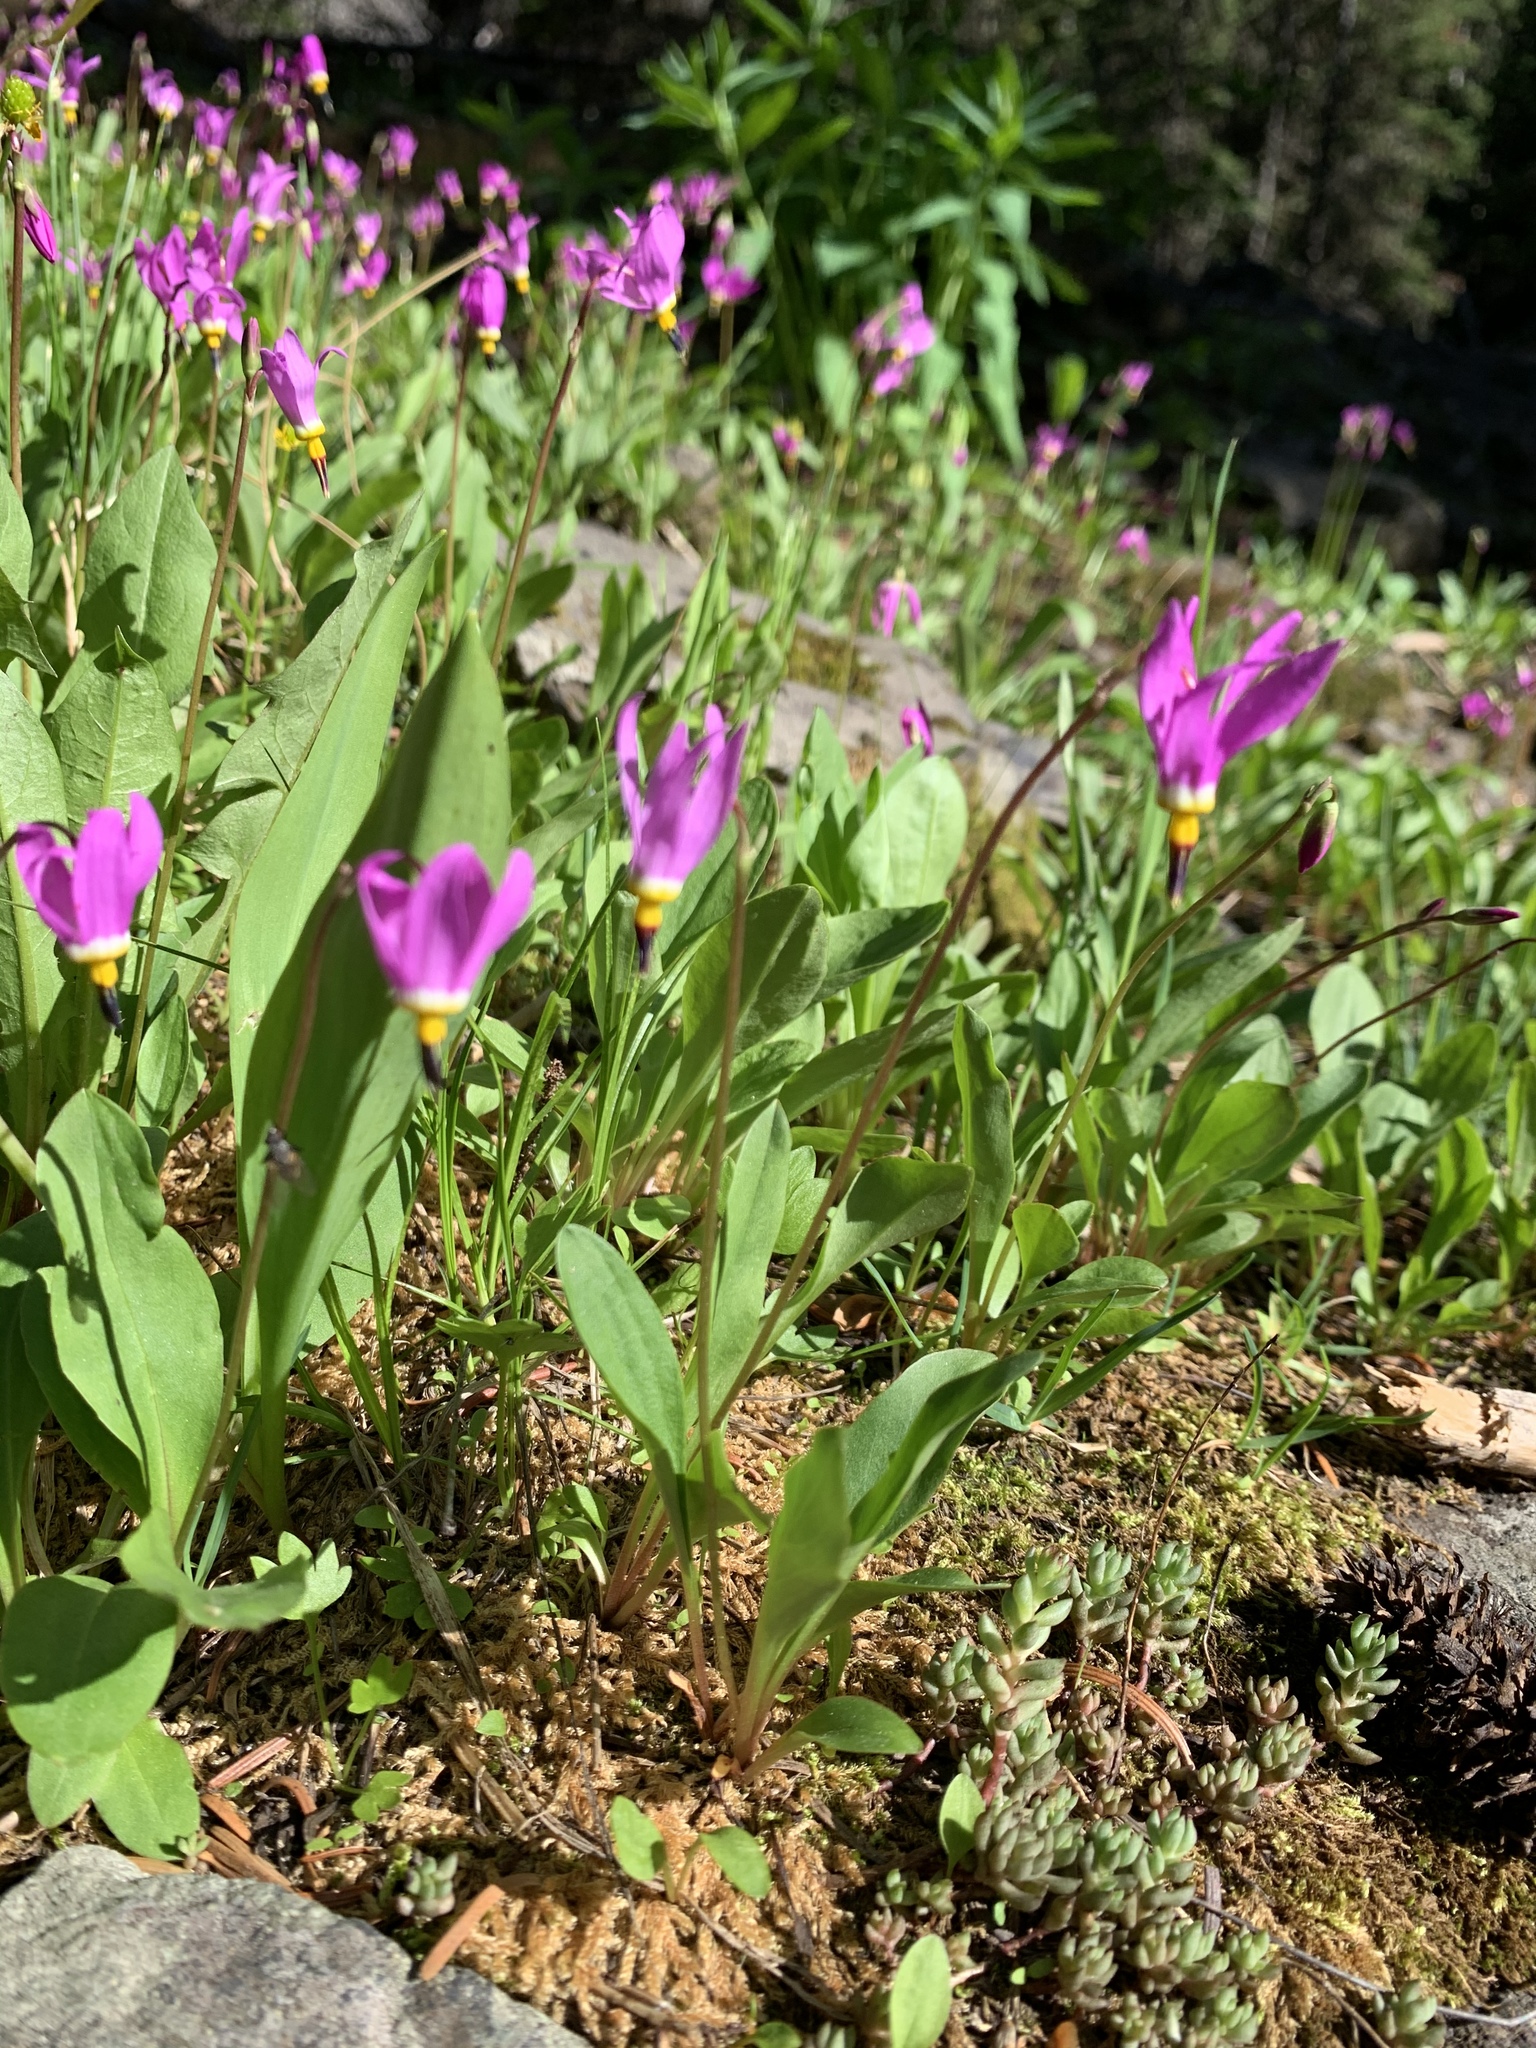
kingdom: Plantae
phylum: Tracheophyta
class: Magnoliopsida
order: Ericales
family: Primulaceae
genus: Dodecatheon
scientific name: Dodecatheon pulchellum
